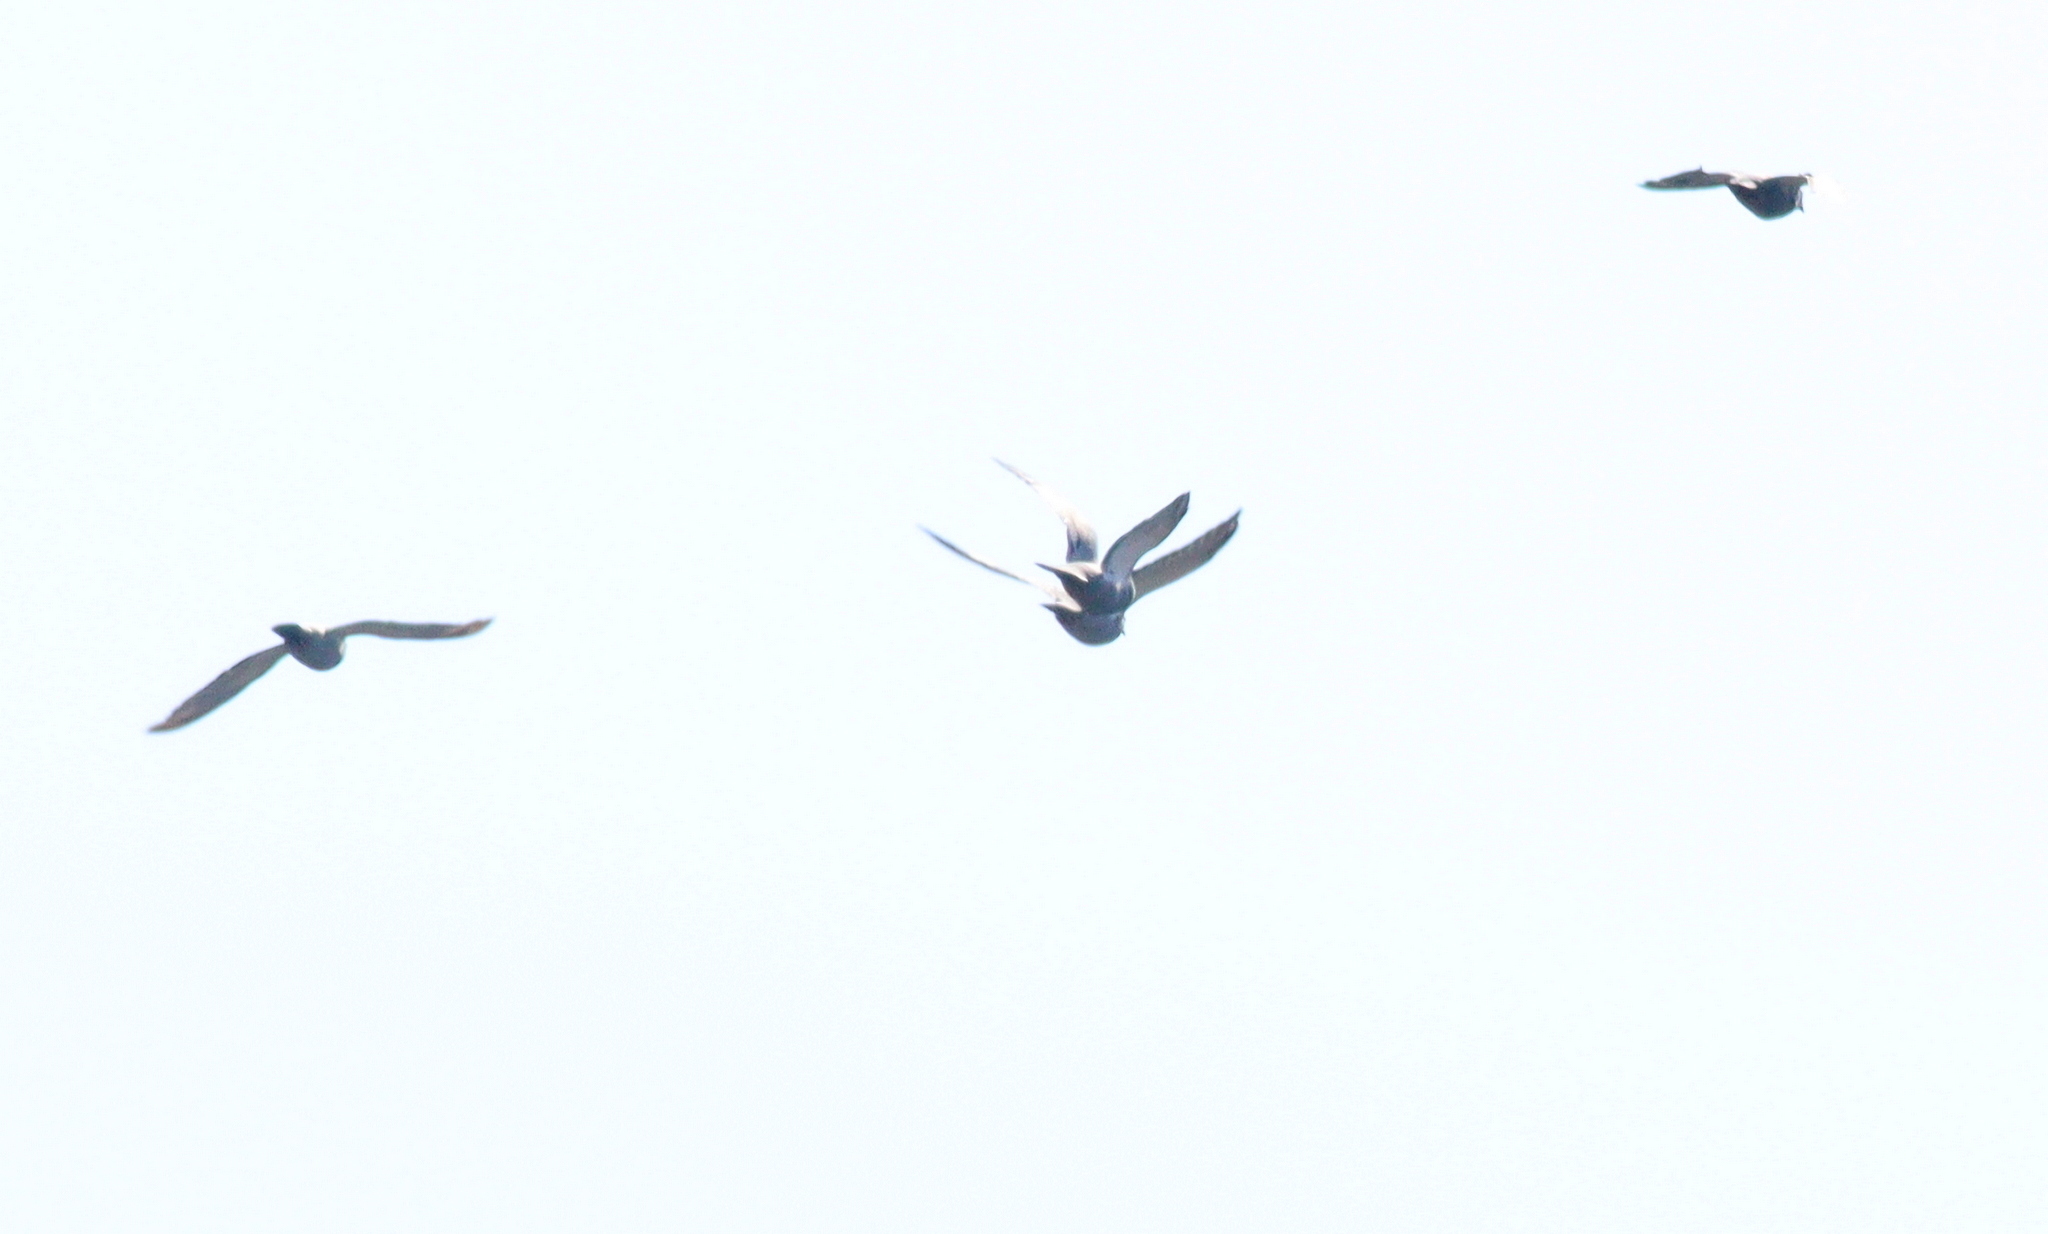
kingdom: Animalia
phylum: Chordata
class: Aves
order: Columbiformes
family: Columbidae
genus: Columba
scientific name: Columba livia
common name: Rock pigeon
